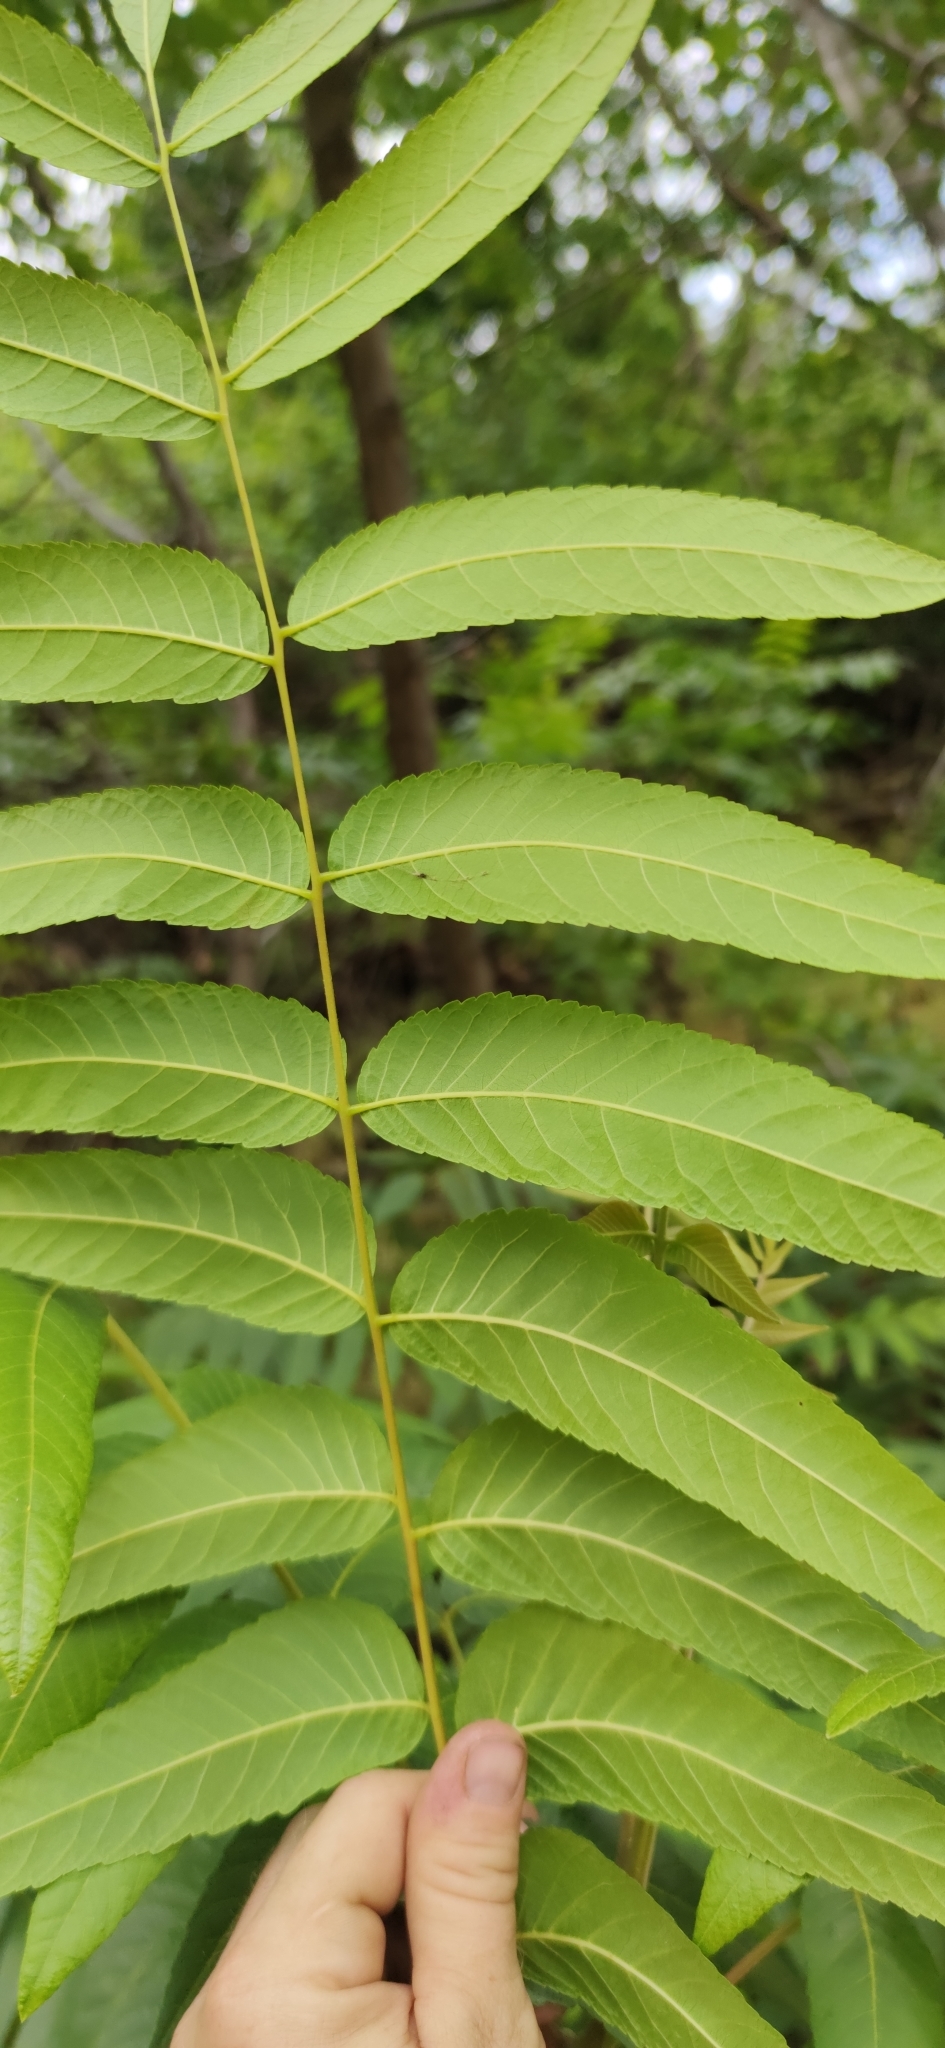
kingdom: Plantae
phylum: Tracheophyta
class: Magnoliopsida
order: Fagales
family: Juglandaceae
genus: Juglans
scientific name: Juglans californica
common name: Southern california black walnut
